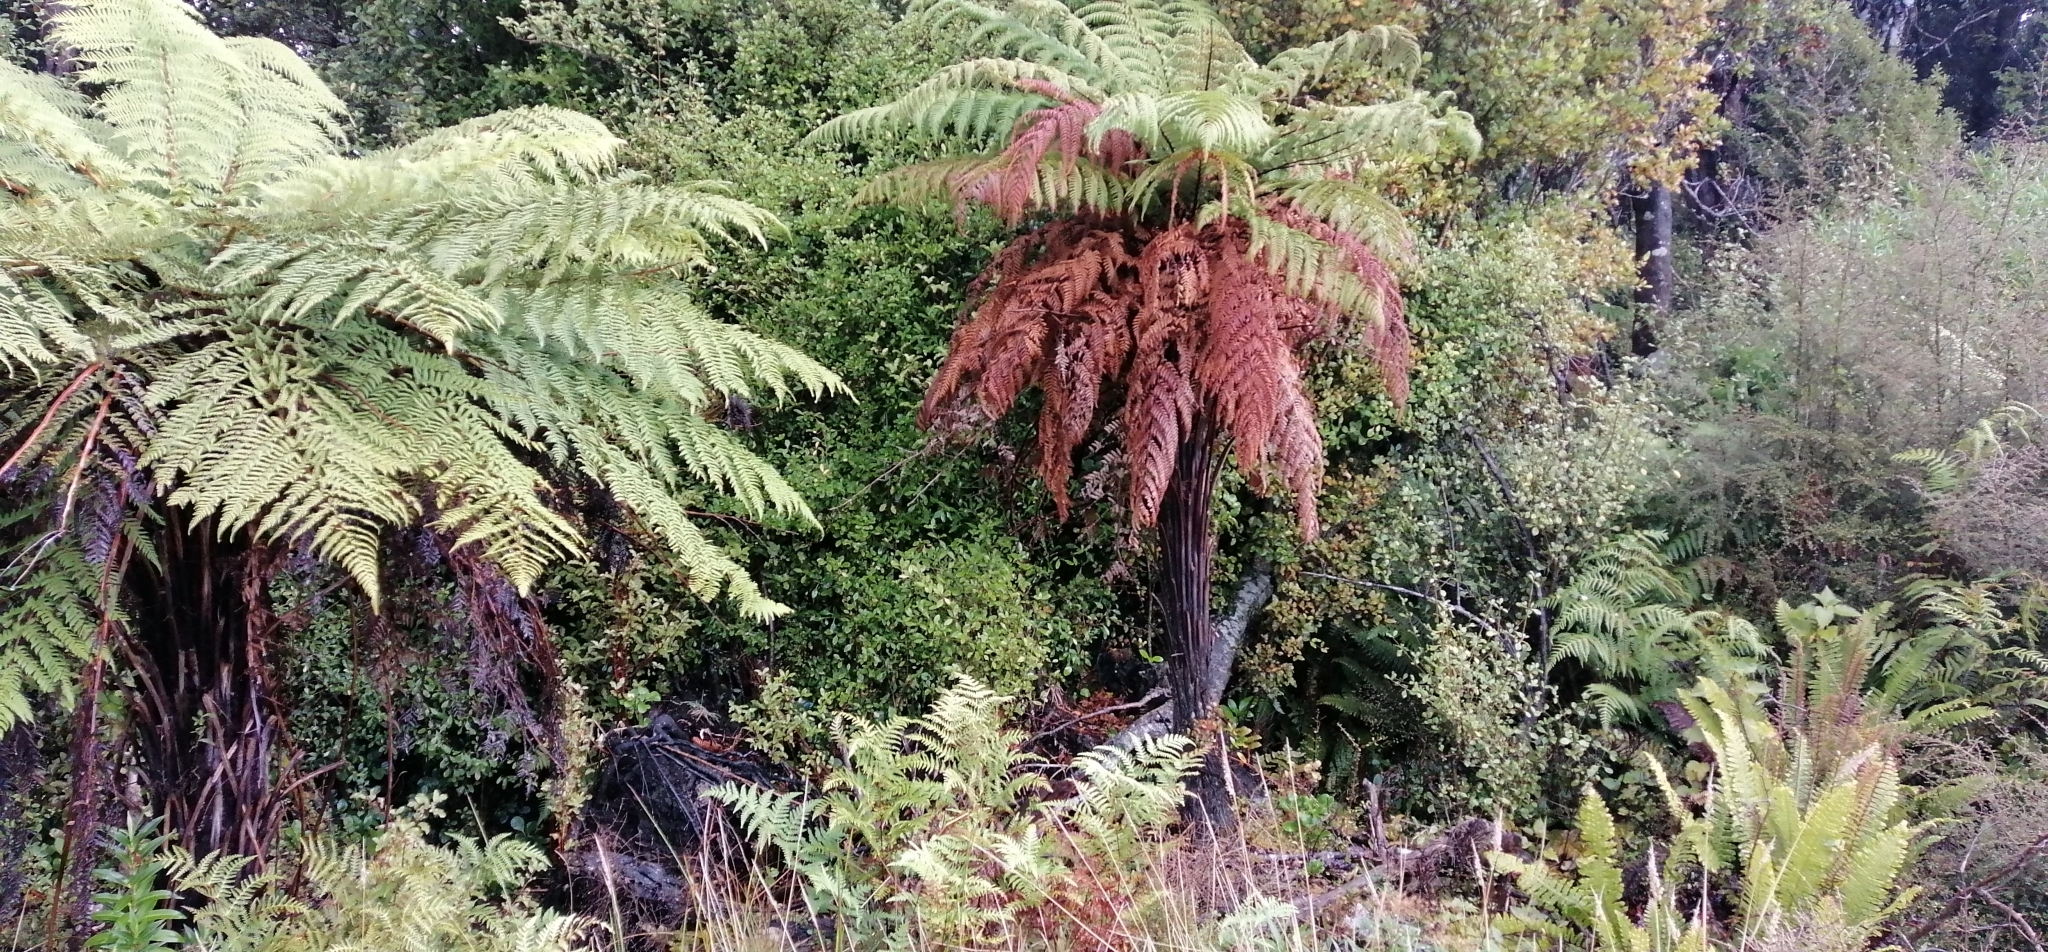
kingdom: Plantae
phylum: Tracheophyta
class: Polypodiopsida
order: Cyatheales
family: Dicksoniaceae
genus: Dicksonia
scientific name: Dicksonia squarrosa
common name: Hard treefern
